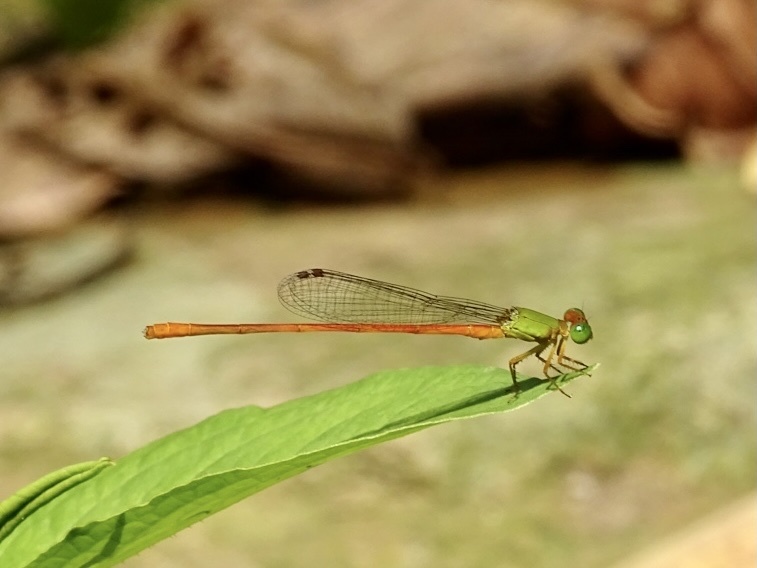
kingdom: Animalia
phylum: Arthropoda
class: Insecta
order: Odonata
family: Coenagrionidae
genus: Ceriagrion
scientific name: Ceriagrion auranticum
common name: Orange-tailed sprite
